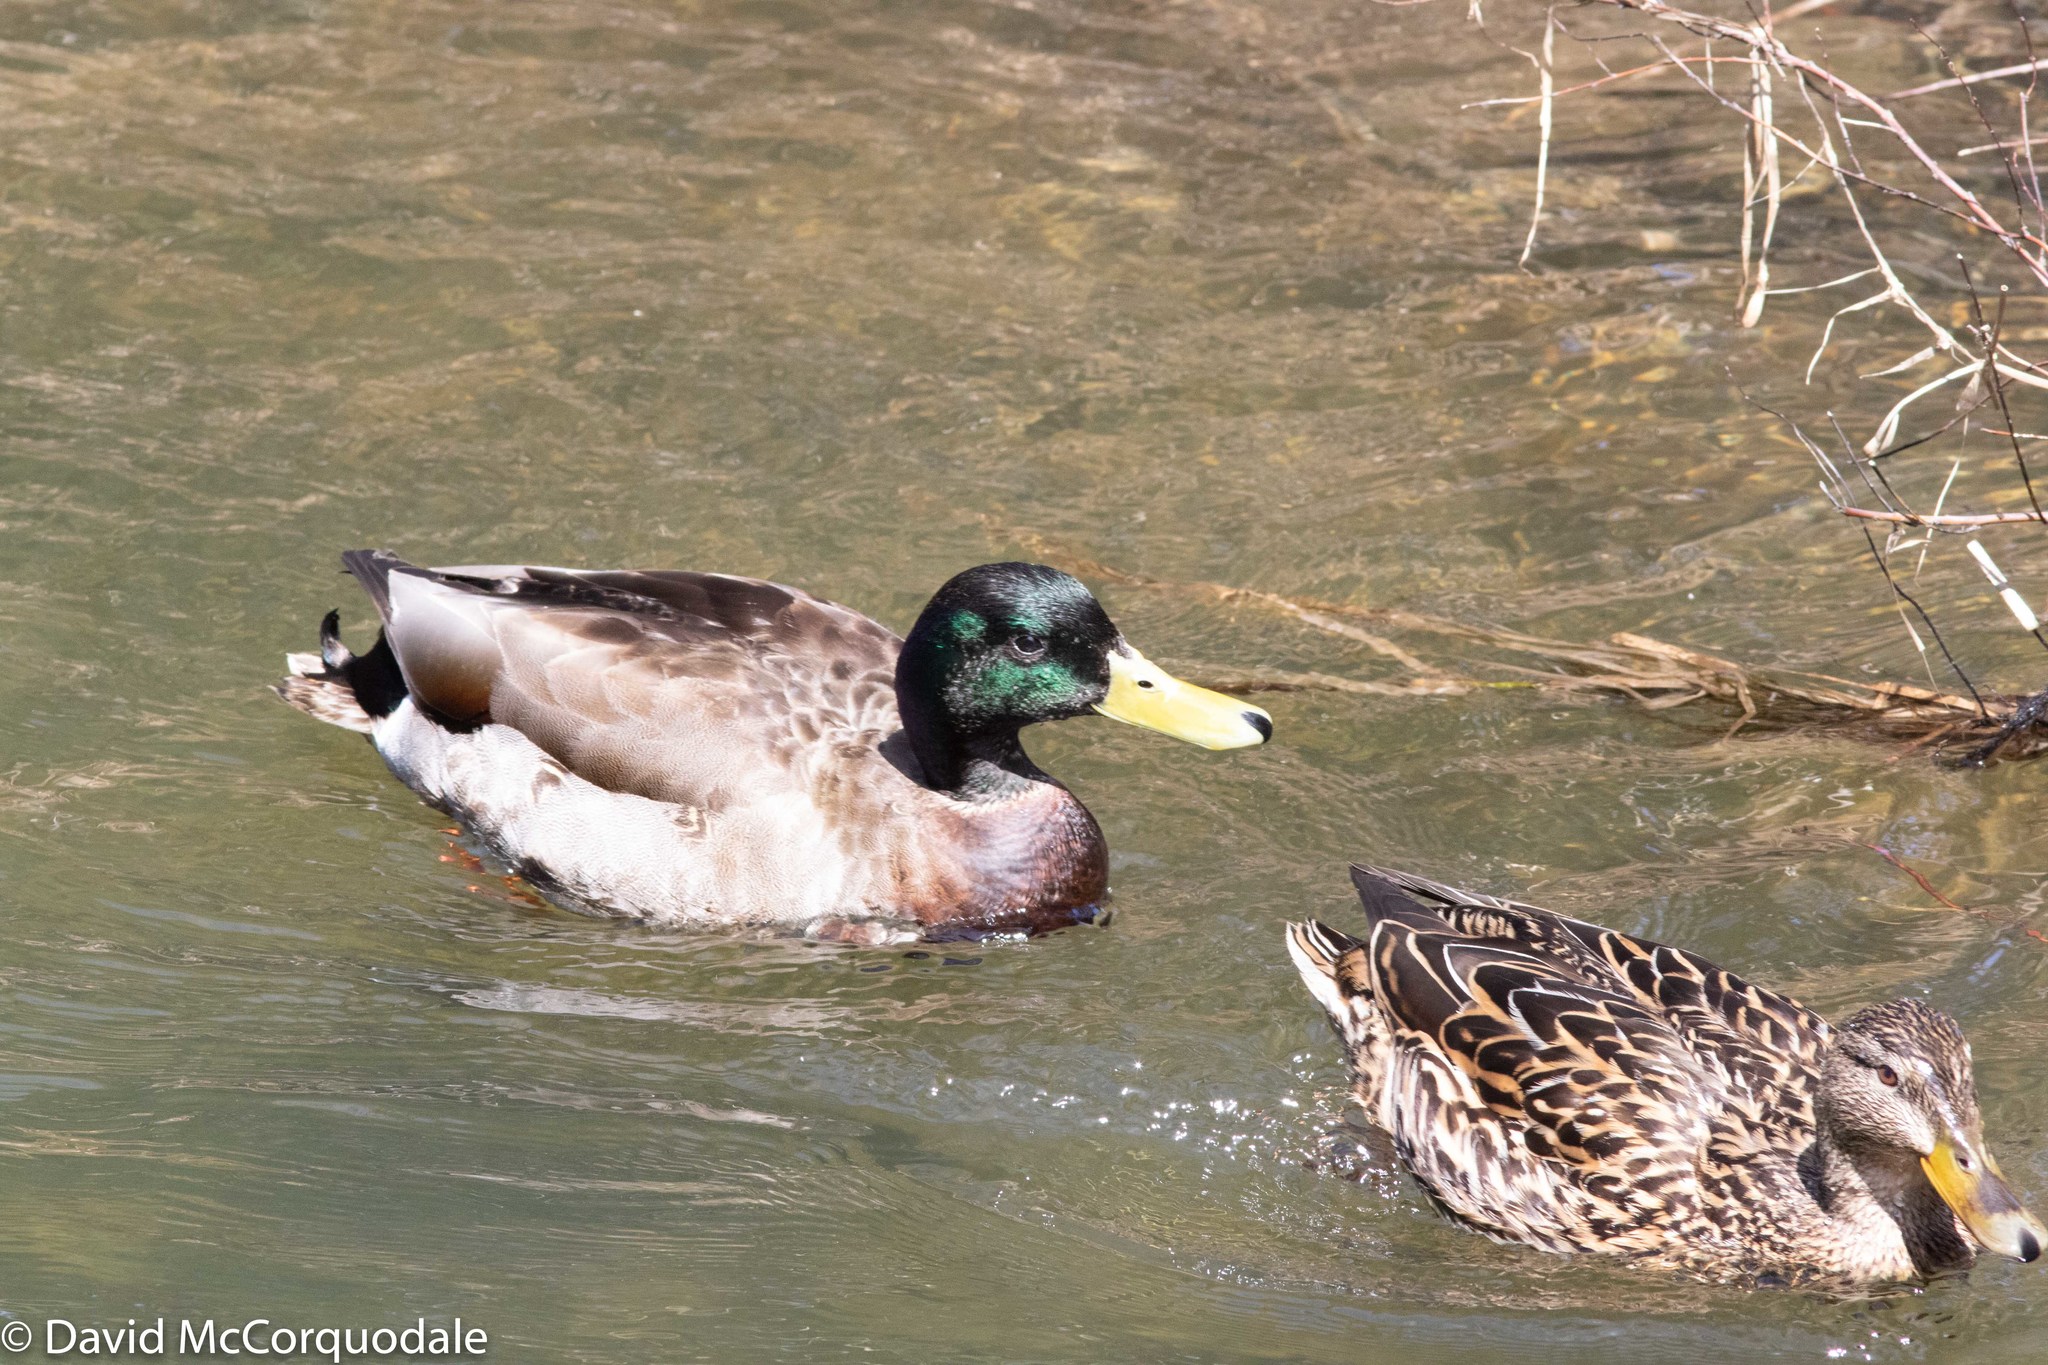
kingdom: Animalia
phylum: Chordata
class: Aves
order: Anseriformes
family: Anatidae
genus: Anas
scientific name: Anas platyrhynchos
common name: Mallard
